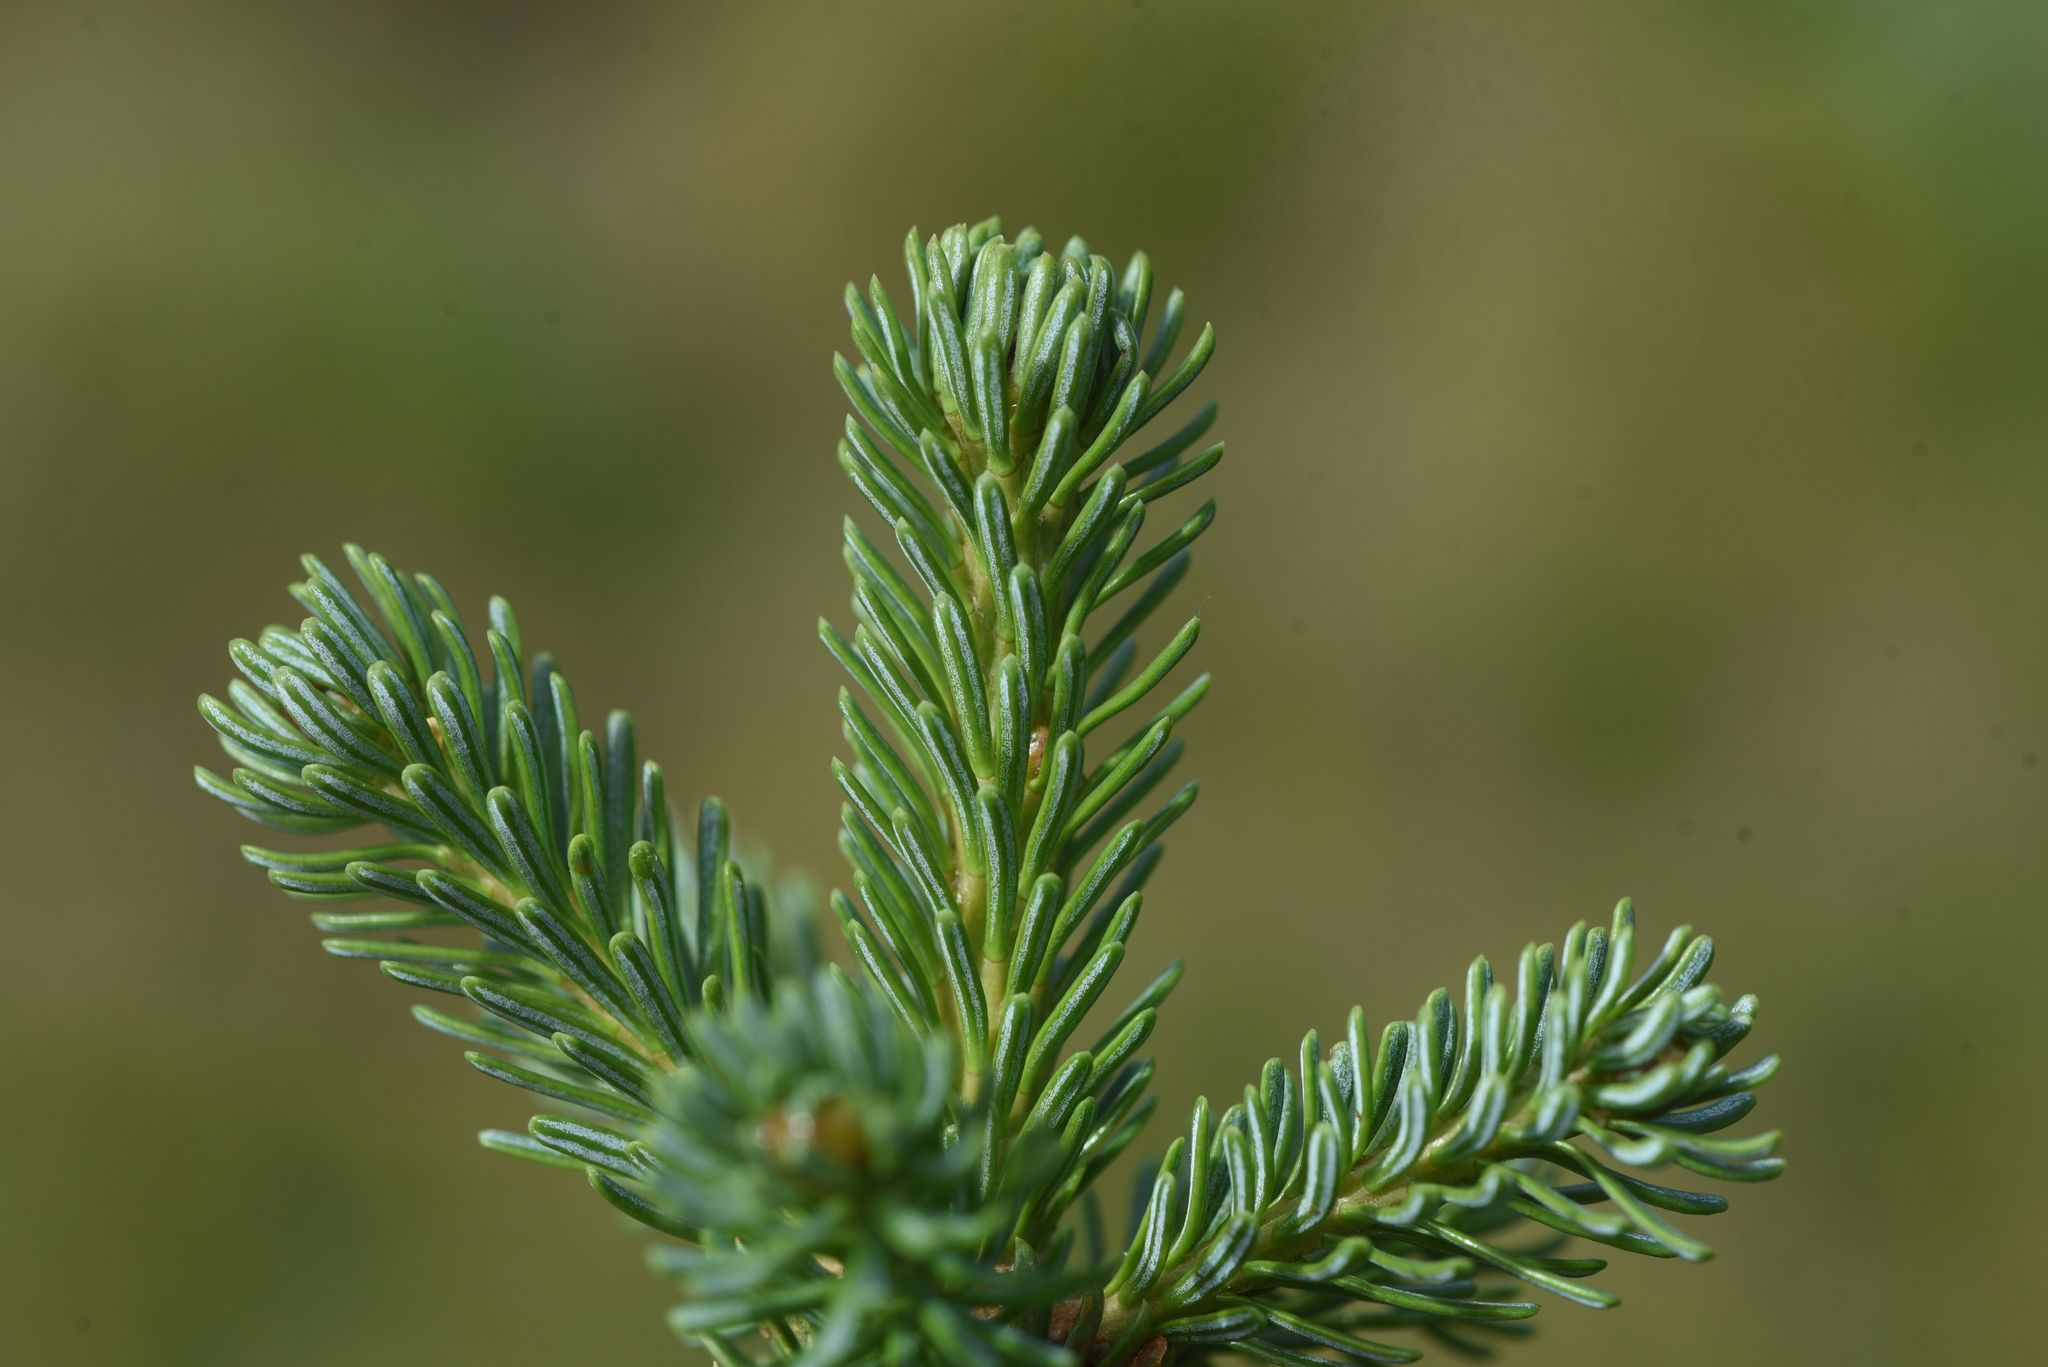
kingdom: Plantae
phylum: Tracheophyta
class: Pinopsida
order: Pinales
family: Pinaceae
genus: Abies
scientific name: Abies lasiocarpa
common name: Subalpine fir
